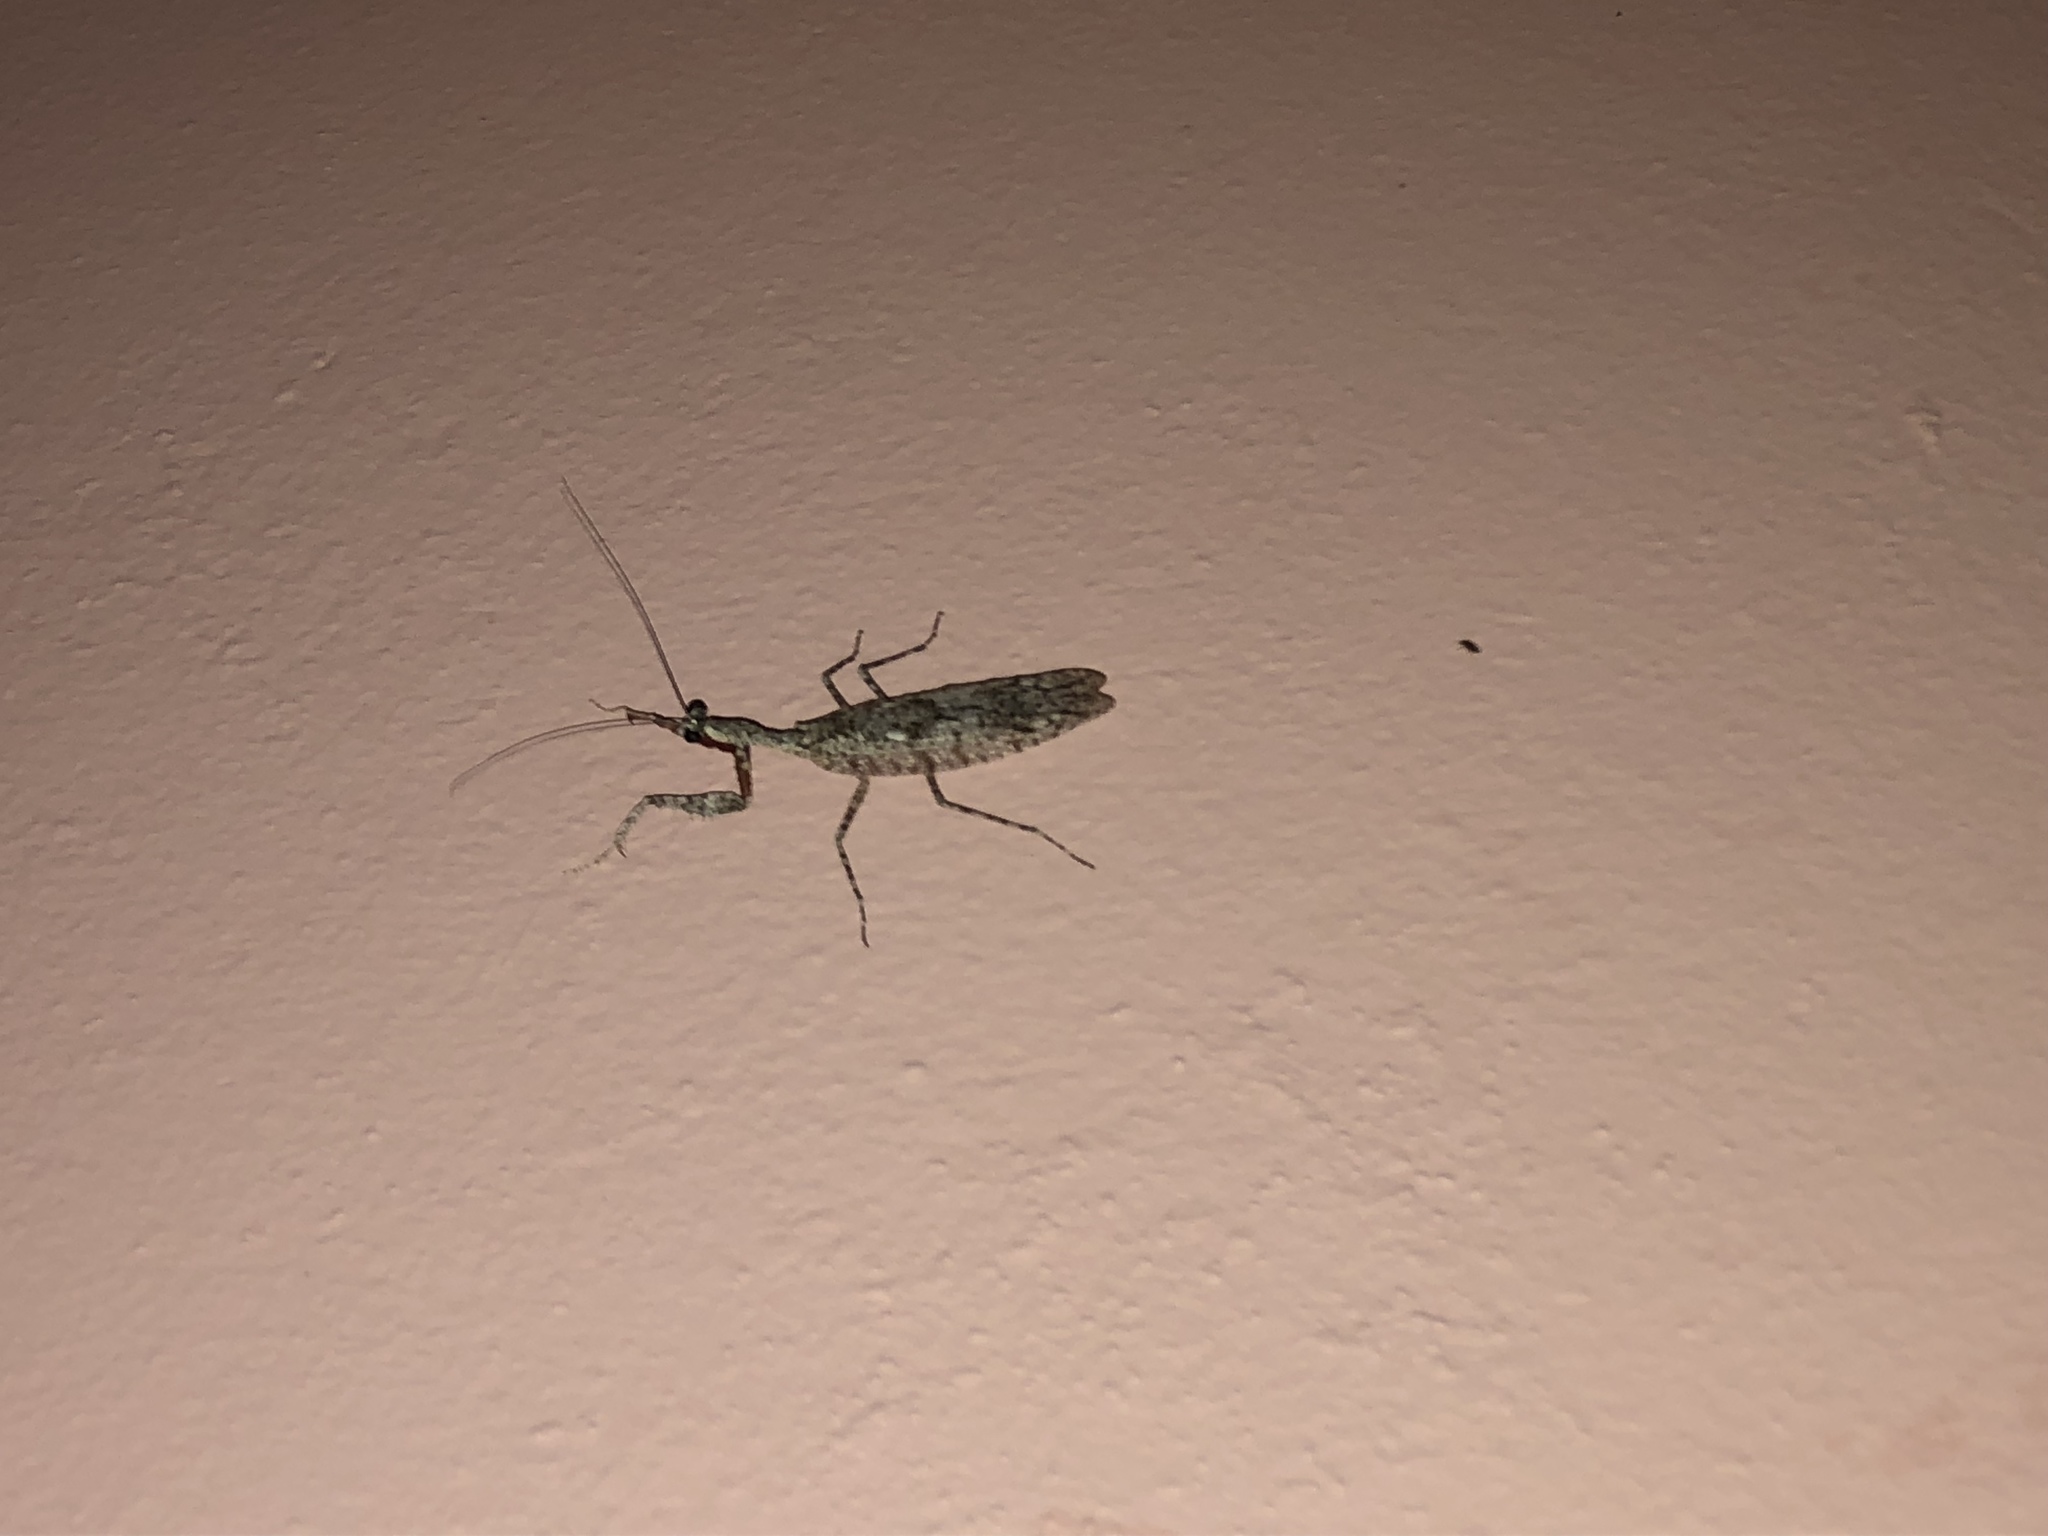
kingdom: Animalia
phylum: Arthropoda
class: Insecta
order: Mantodea
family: Epaphroditidae
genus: Gonatista
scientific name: Gonatista reticulata
